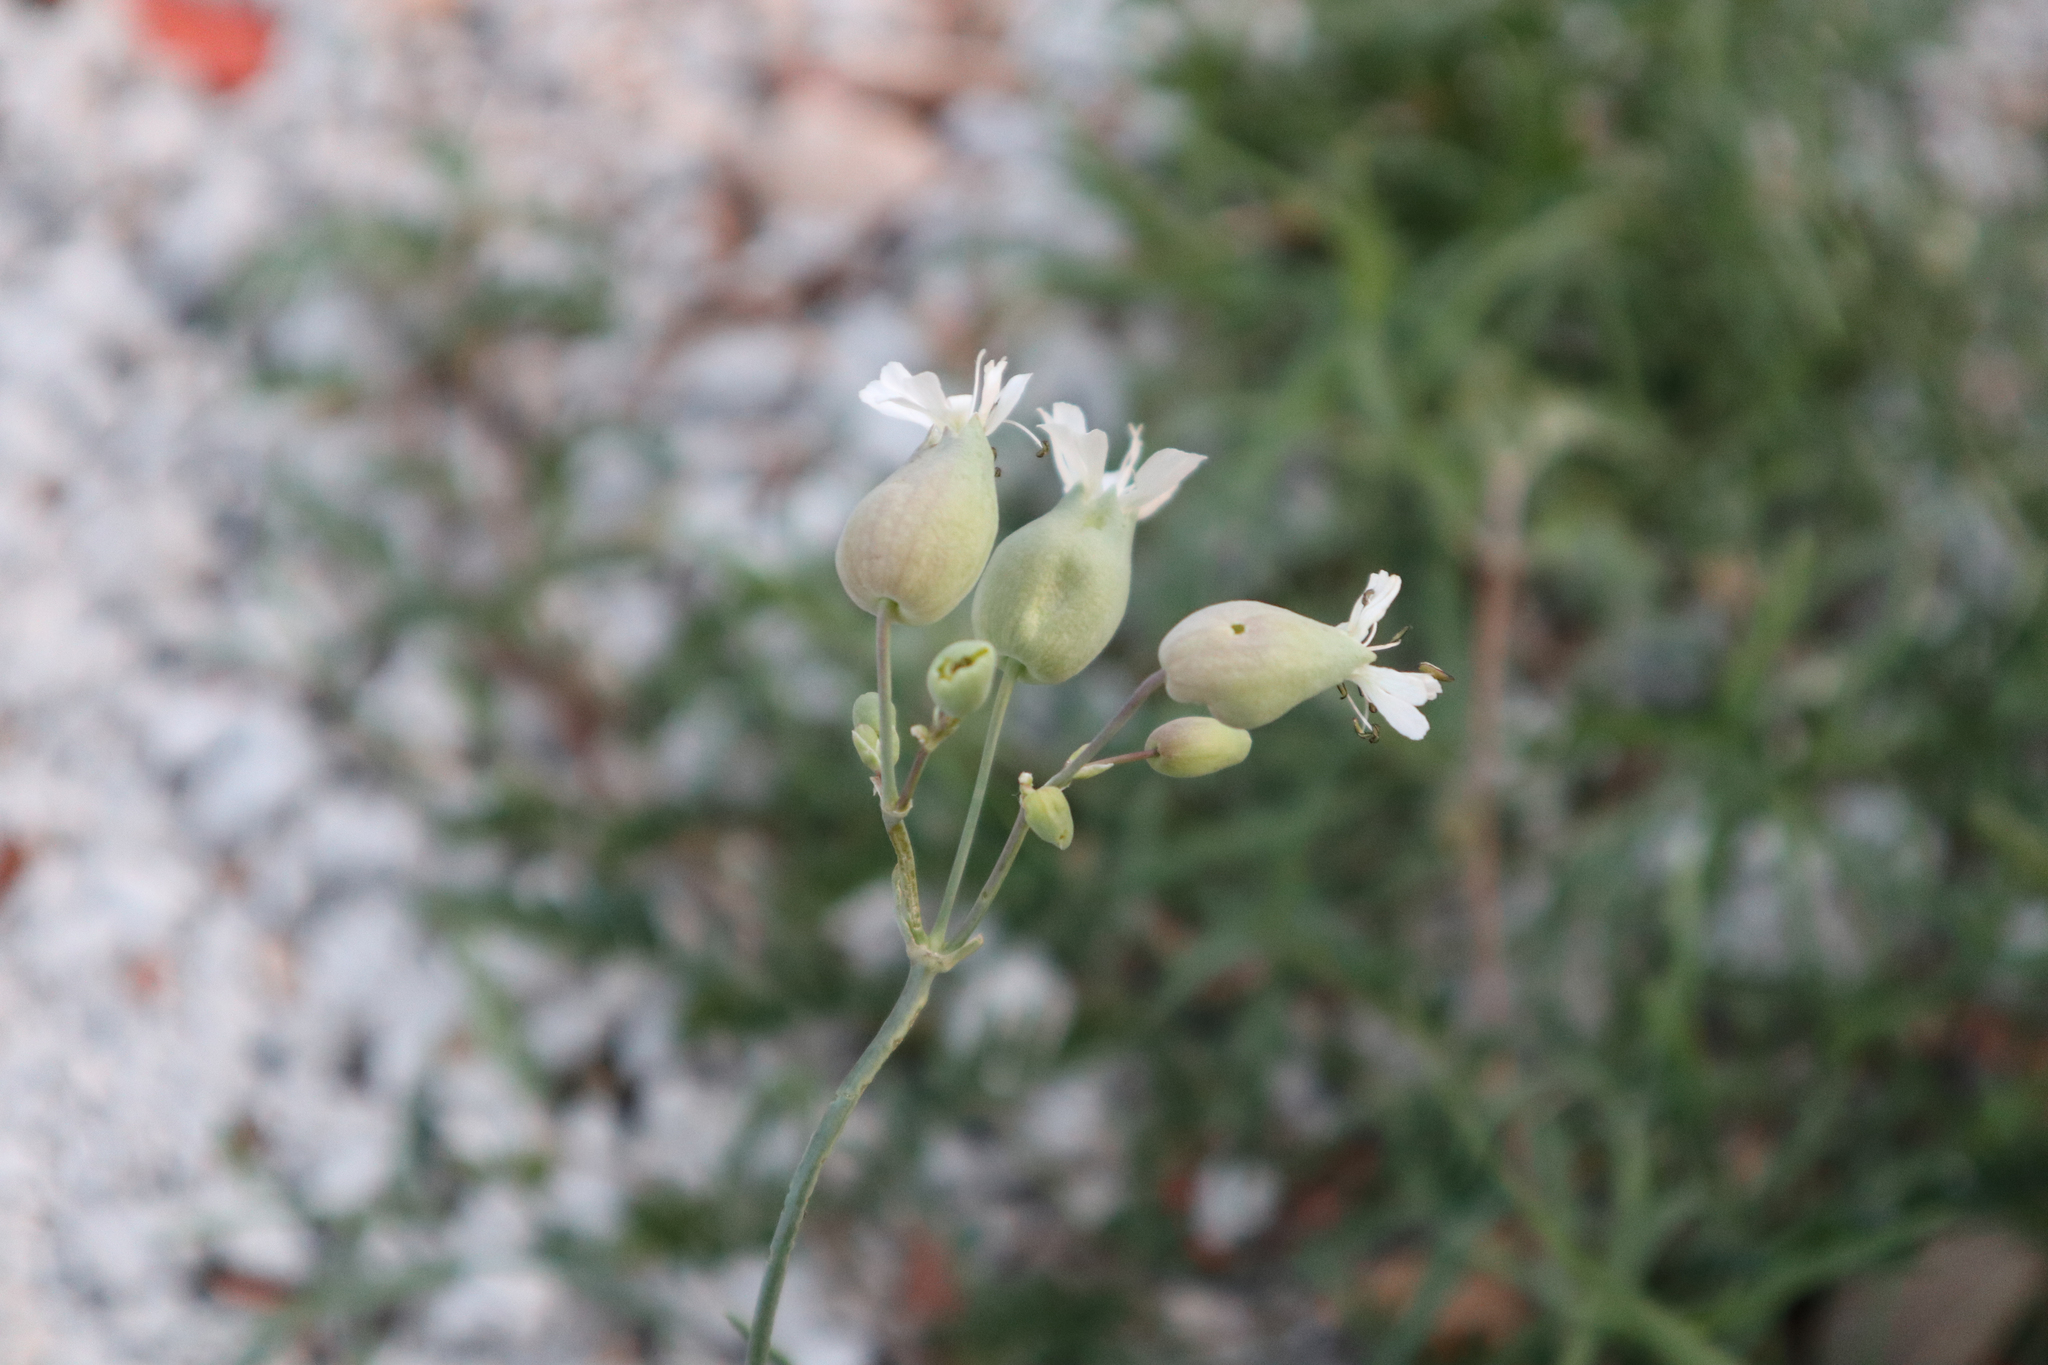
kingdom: Plantae
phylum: Tracheophyta
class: Magnoliopsida
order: Caryophyllales
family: Caryophyllaceae
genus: Silene
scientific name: Silene vulgaris
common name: Bladder campion
